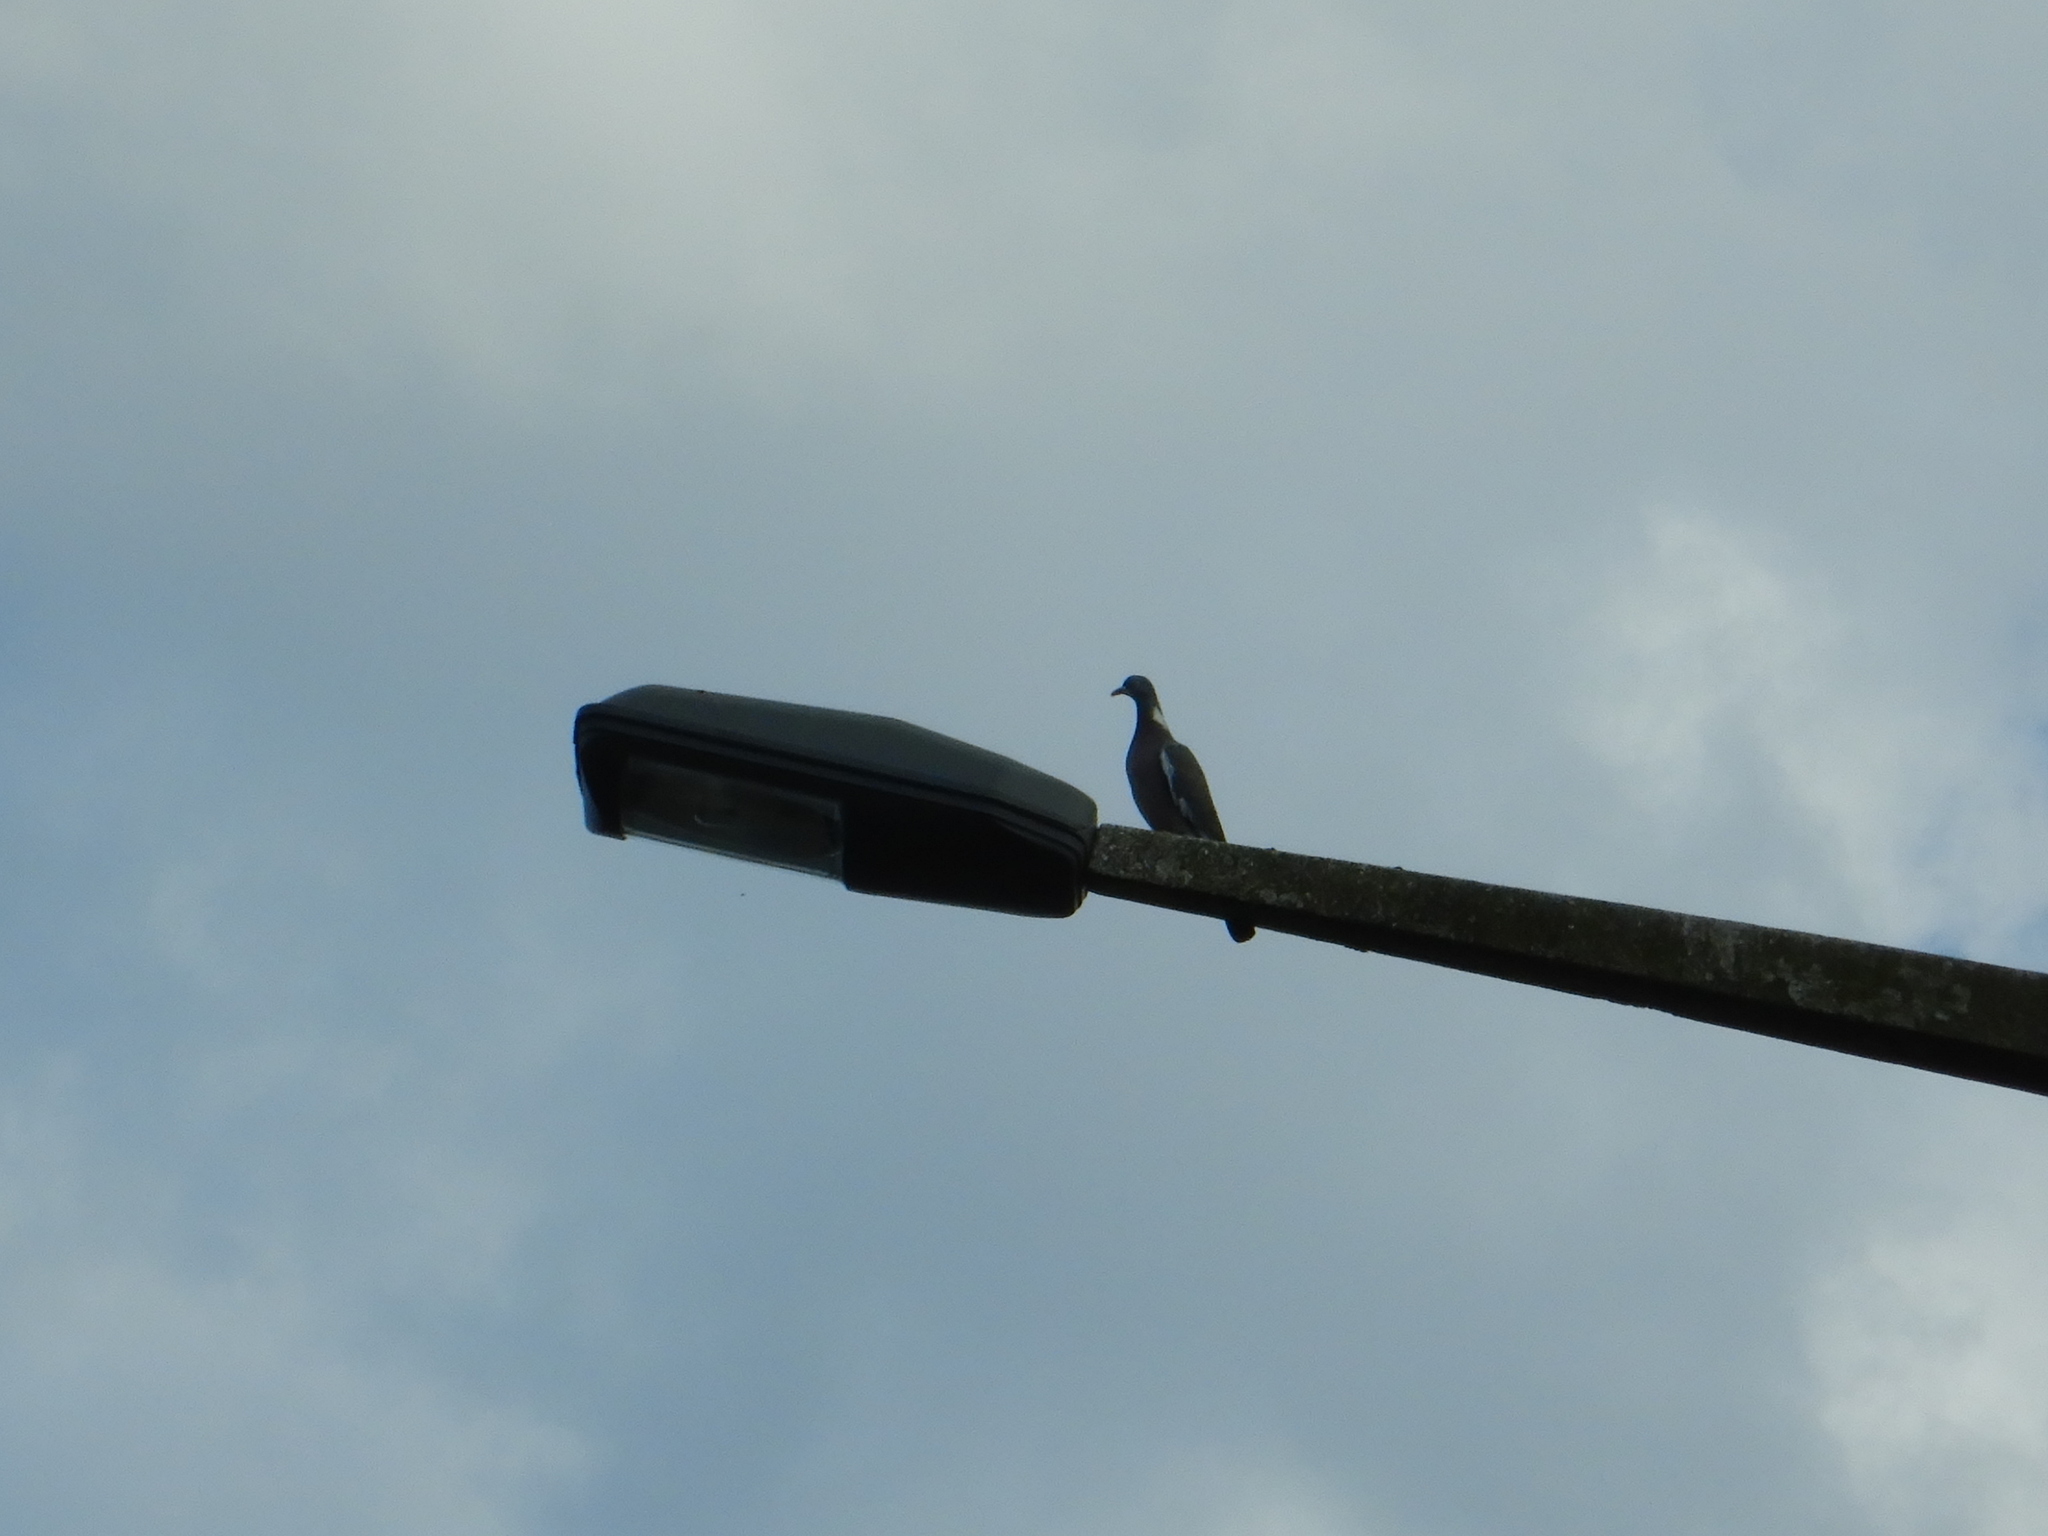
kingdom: Animalia
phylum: Chordata
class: Aves
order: Columbiformes
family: Columbidae
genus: Columba
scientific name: Columba palumbus
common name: Common wood pigeon
